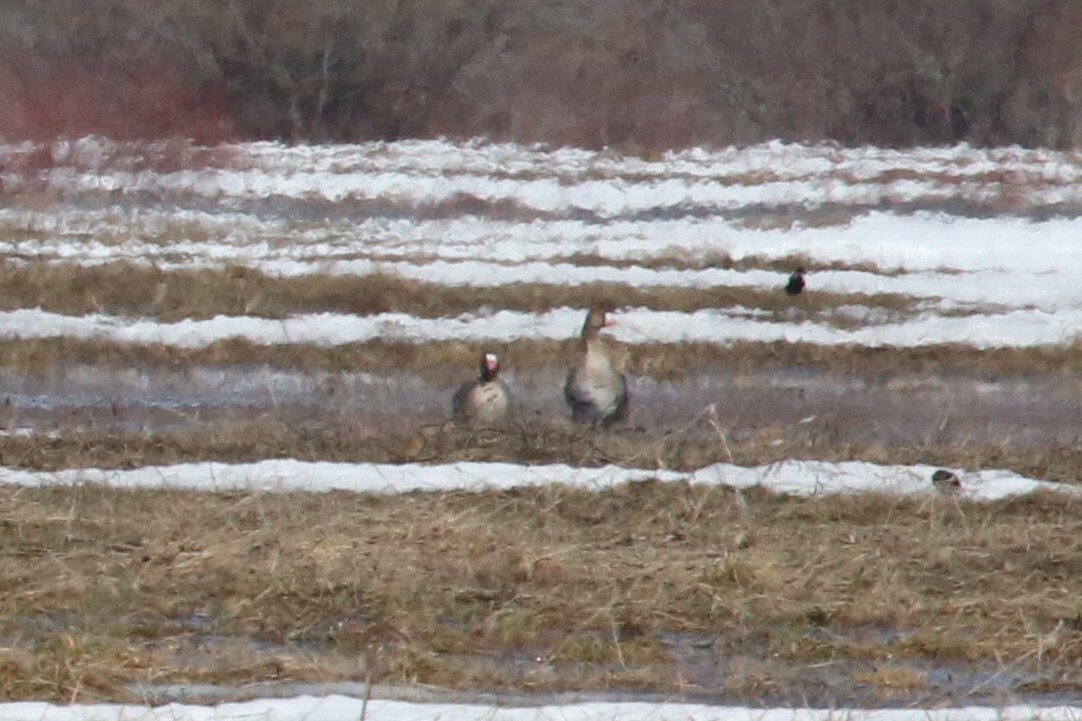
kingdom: Animalia
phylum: Chordata
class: Aves
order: Anseriformes
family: Anatidae
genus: Anser
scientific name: Anser albifrons
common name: Greater white-fronted goose
